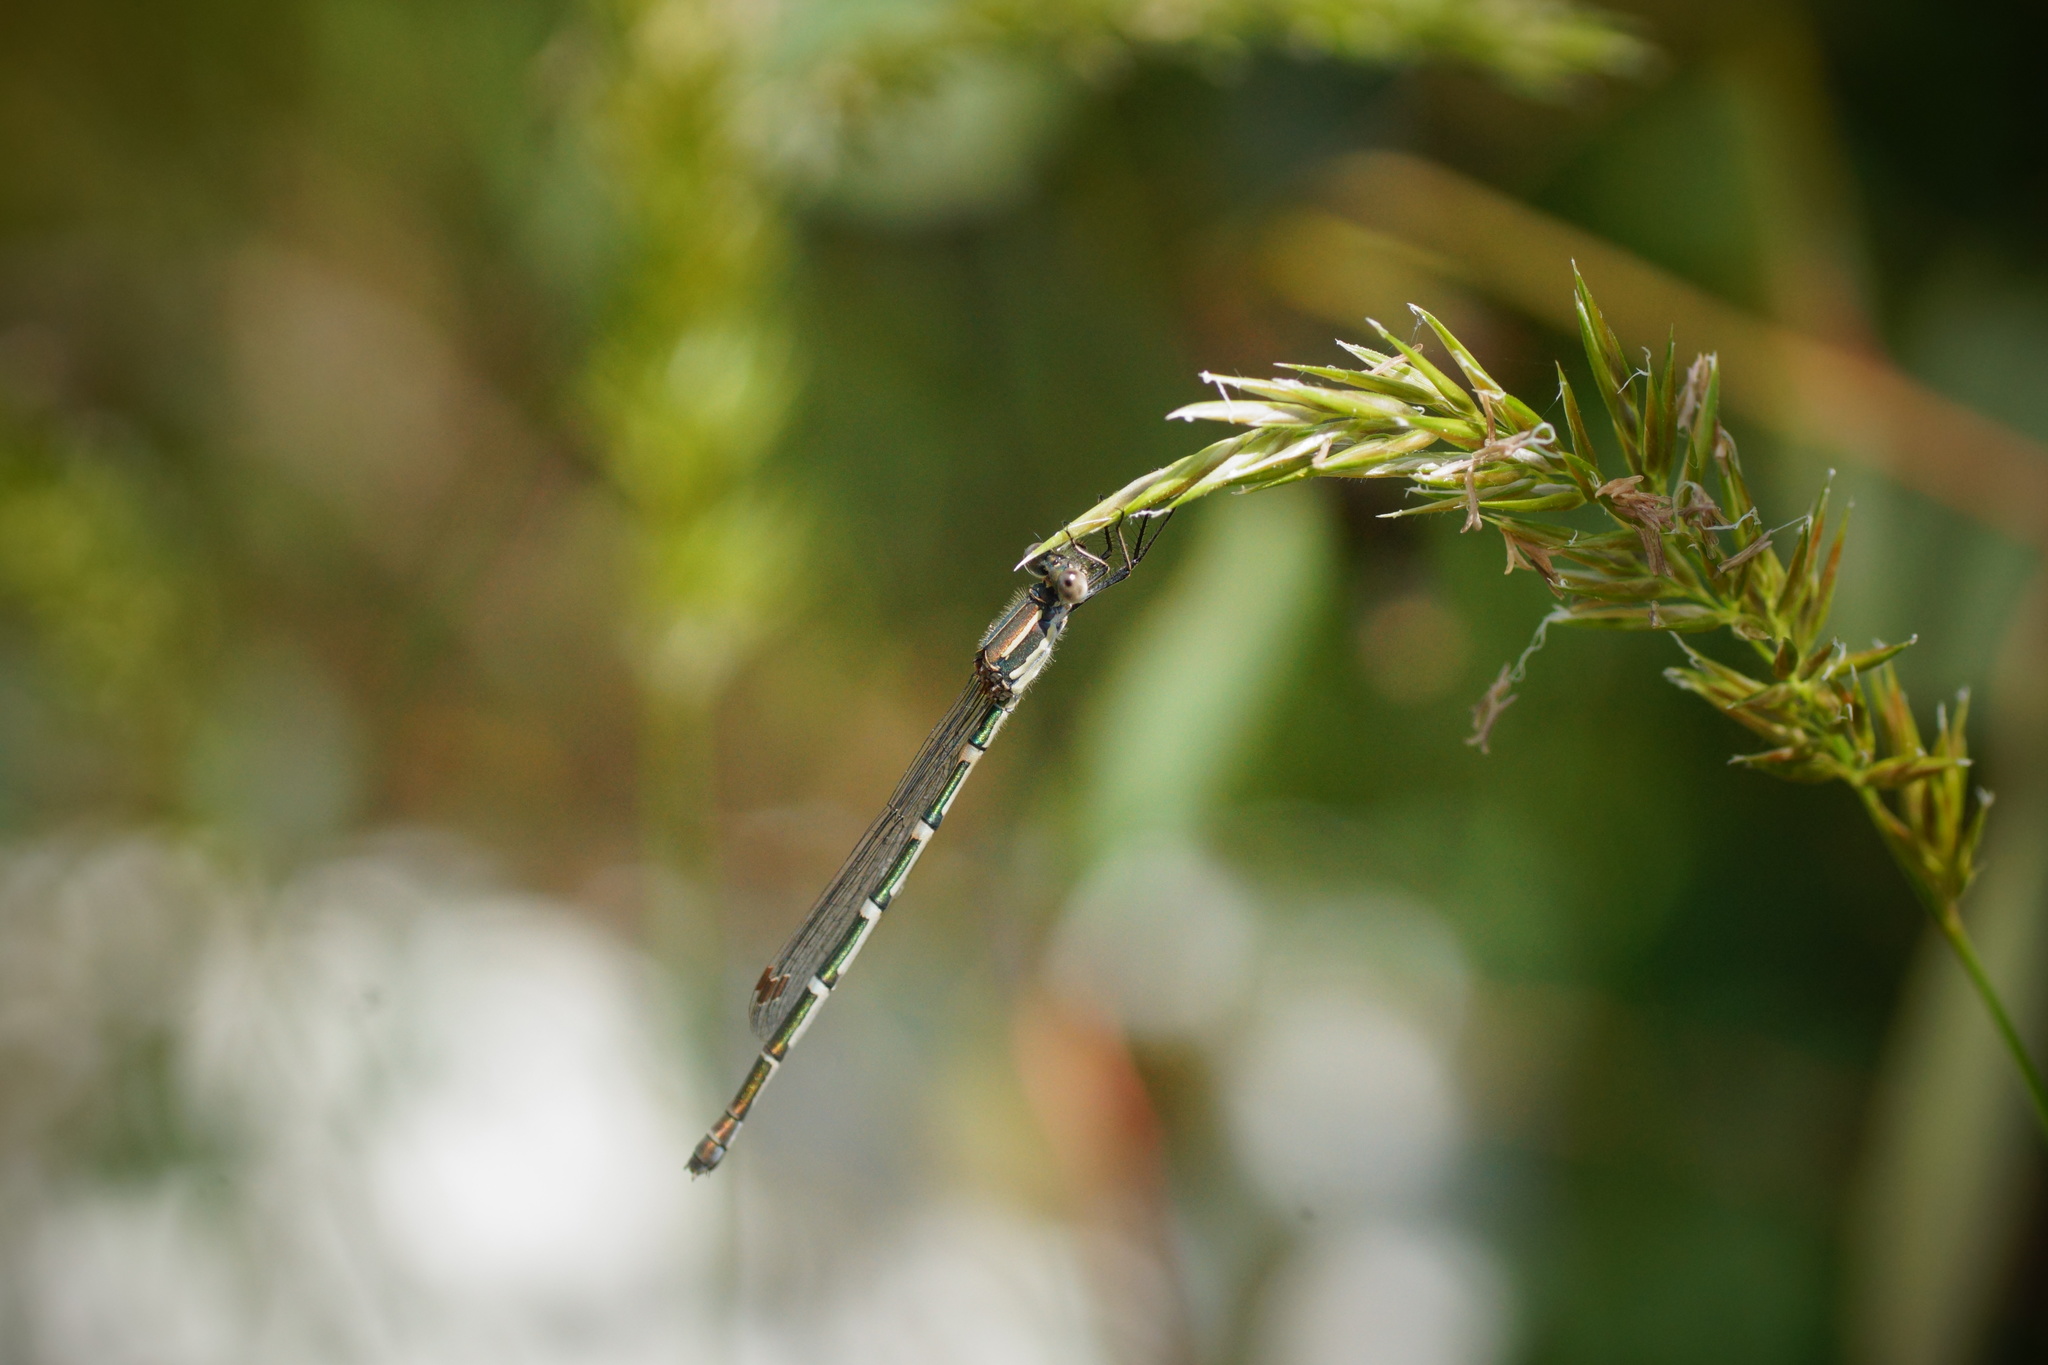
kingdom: Animalia
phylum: Arthropoda
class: Insecta
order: Odonata
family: Lestidae
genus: Austrolestes
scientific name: Austrolestes leda
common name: Wandering ringtail
